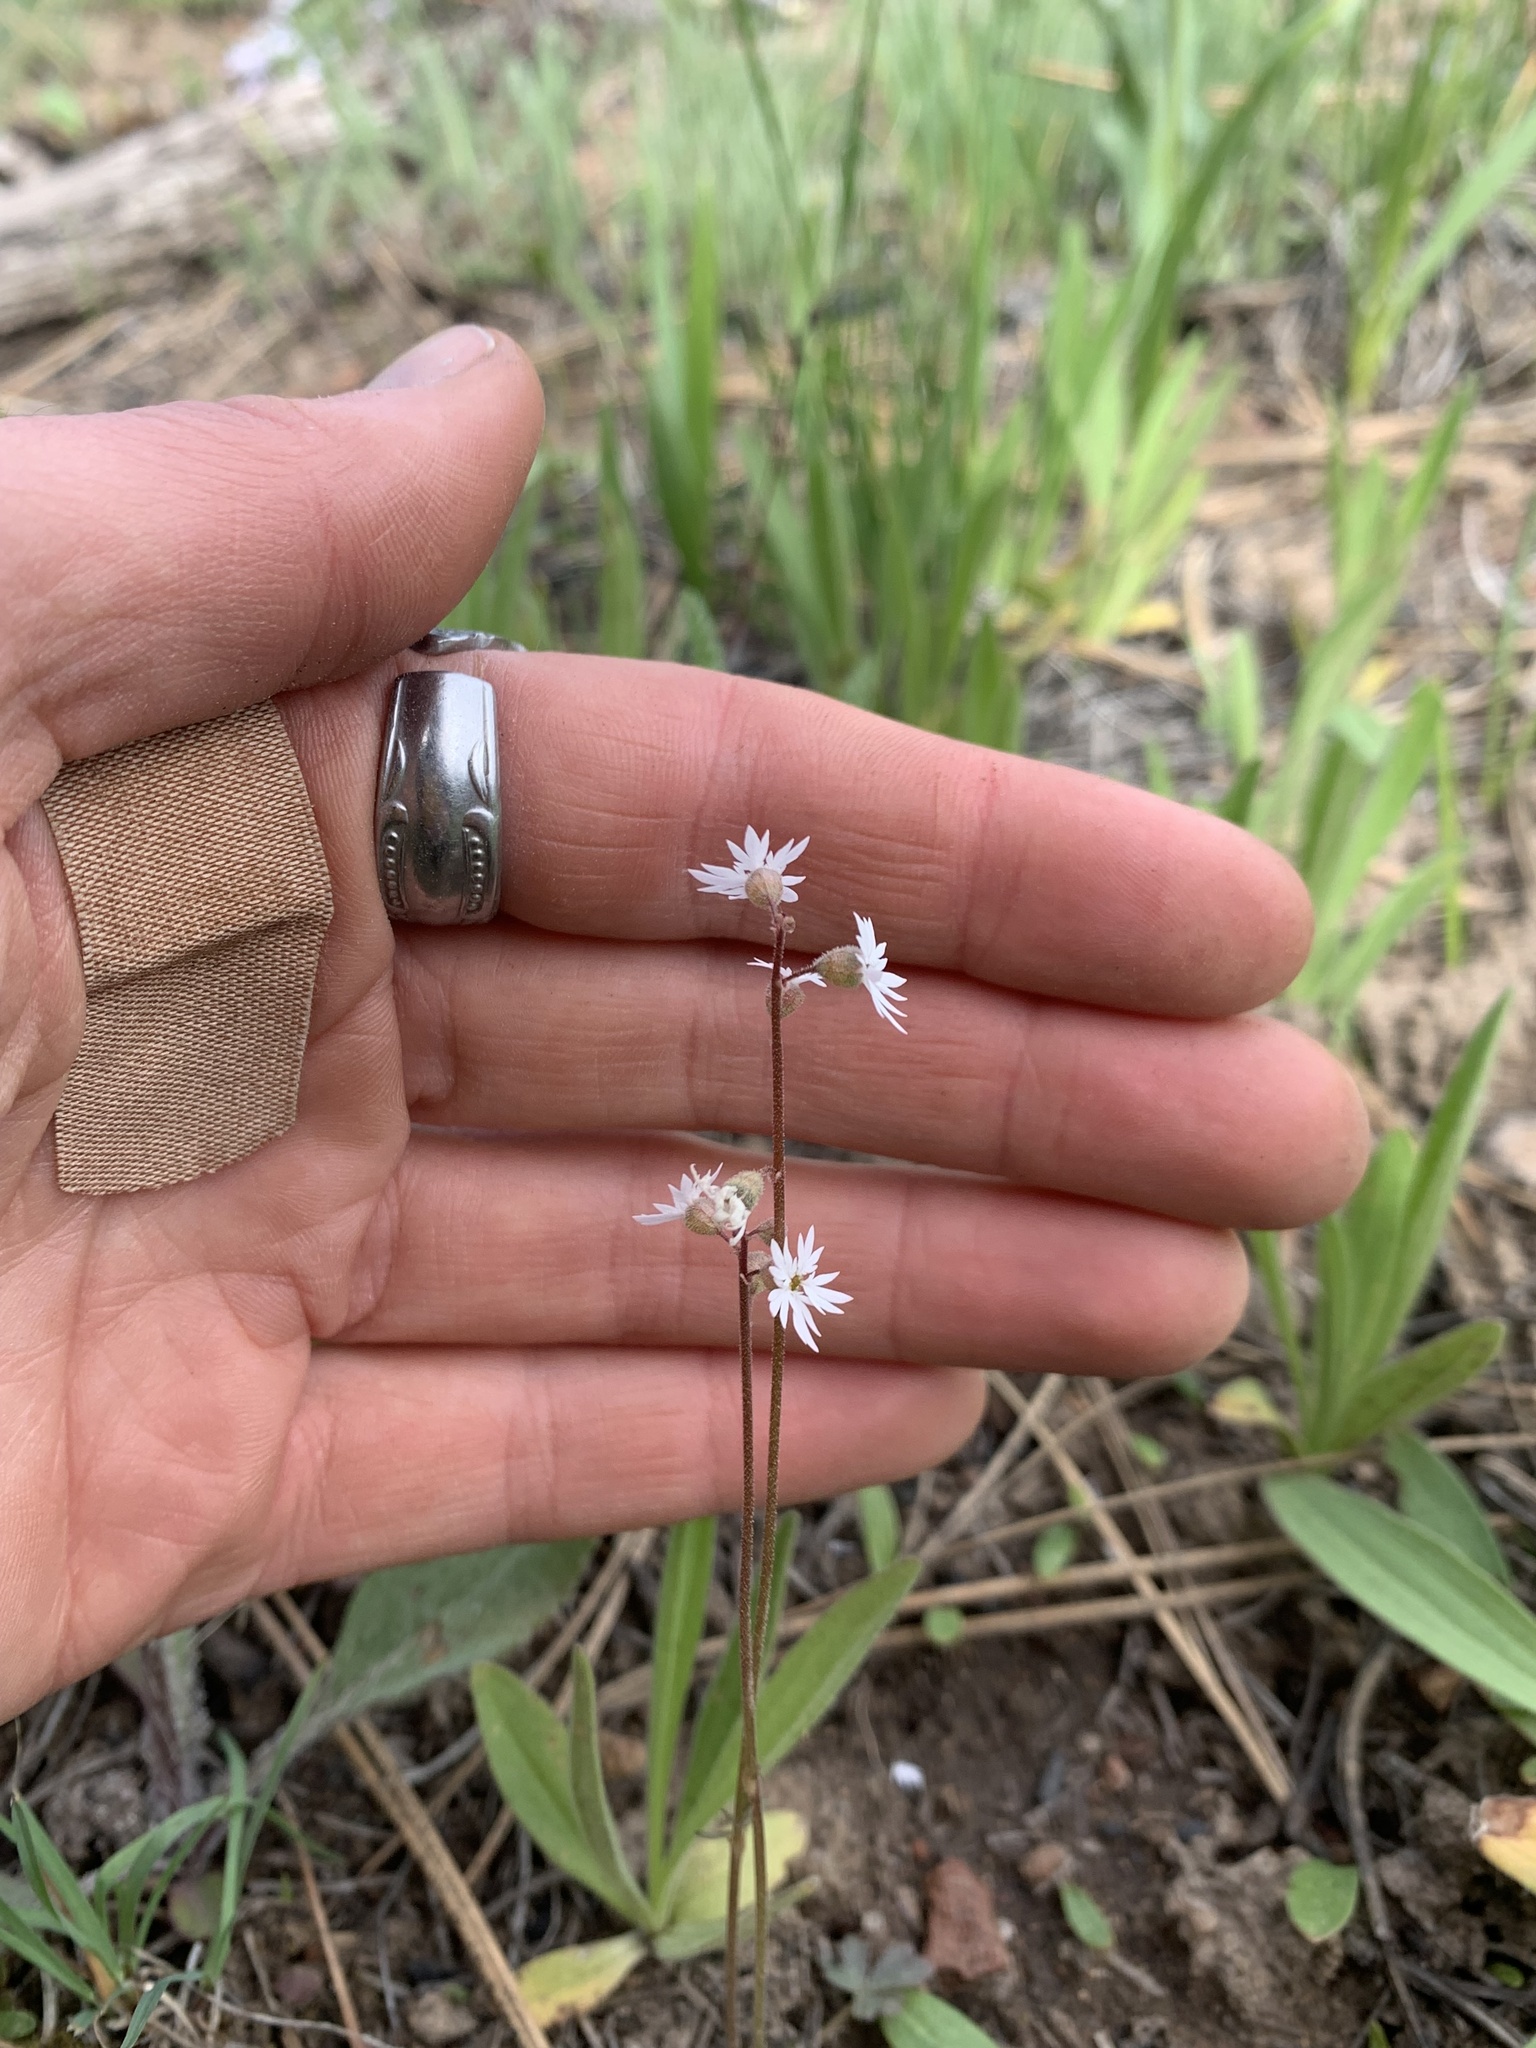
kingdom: Plantae
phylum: Tracheophyta
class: Magnoliopsida
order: Saxifragales
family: Saxifragaceae
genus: Lithophragma
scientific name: Lithophragma glabrum
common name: Bulbous prairie-star
